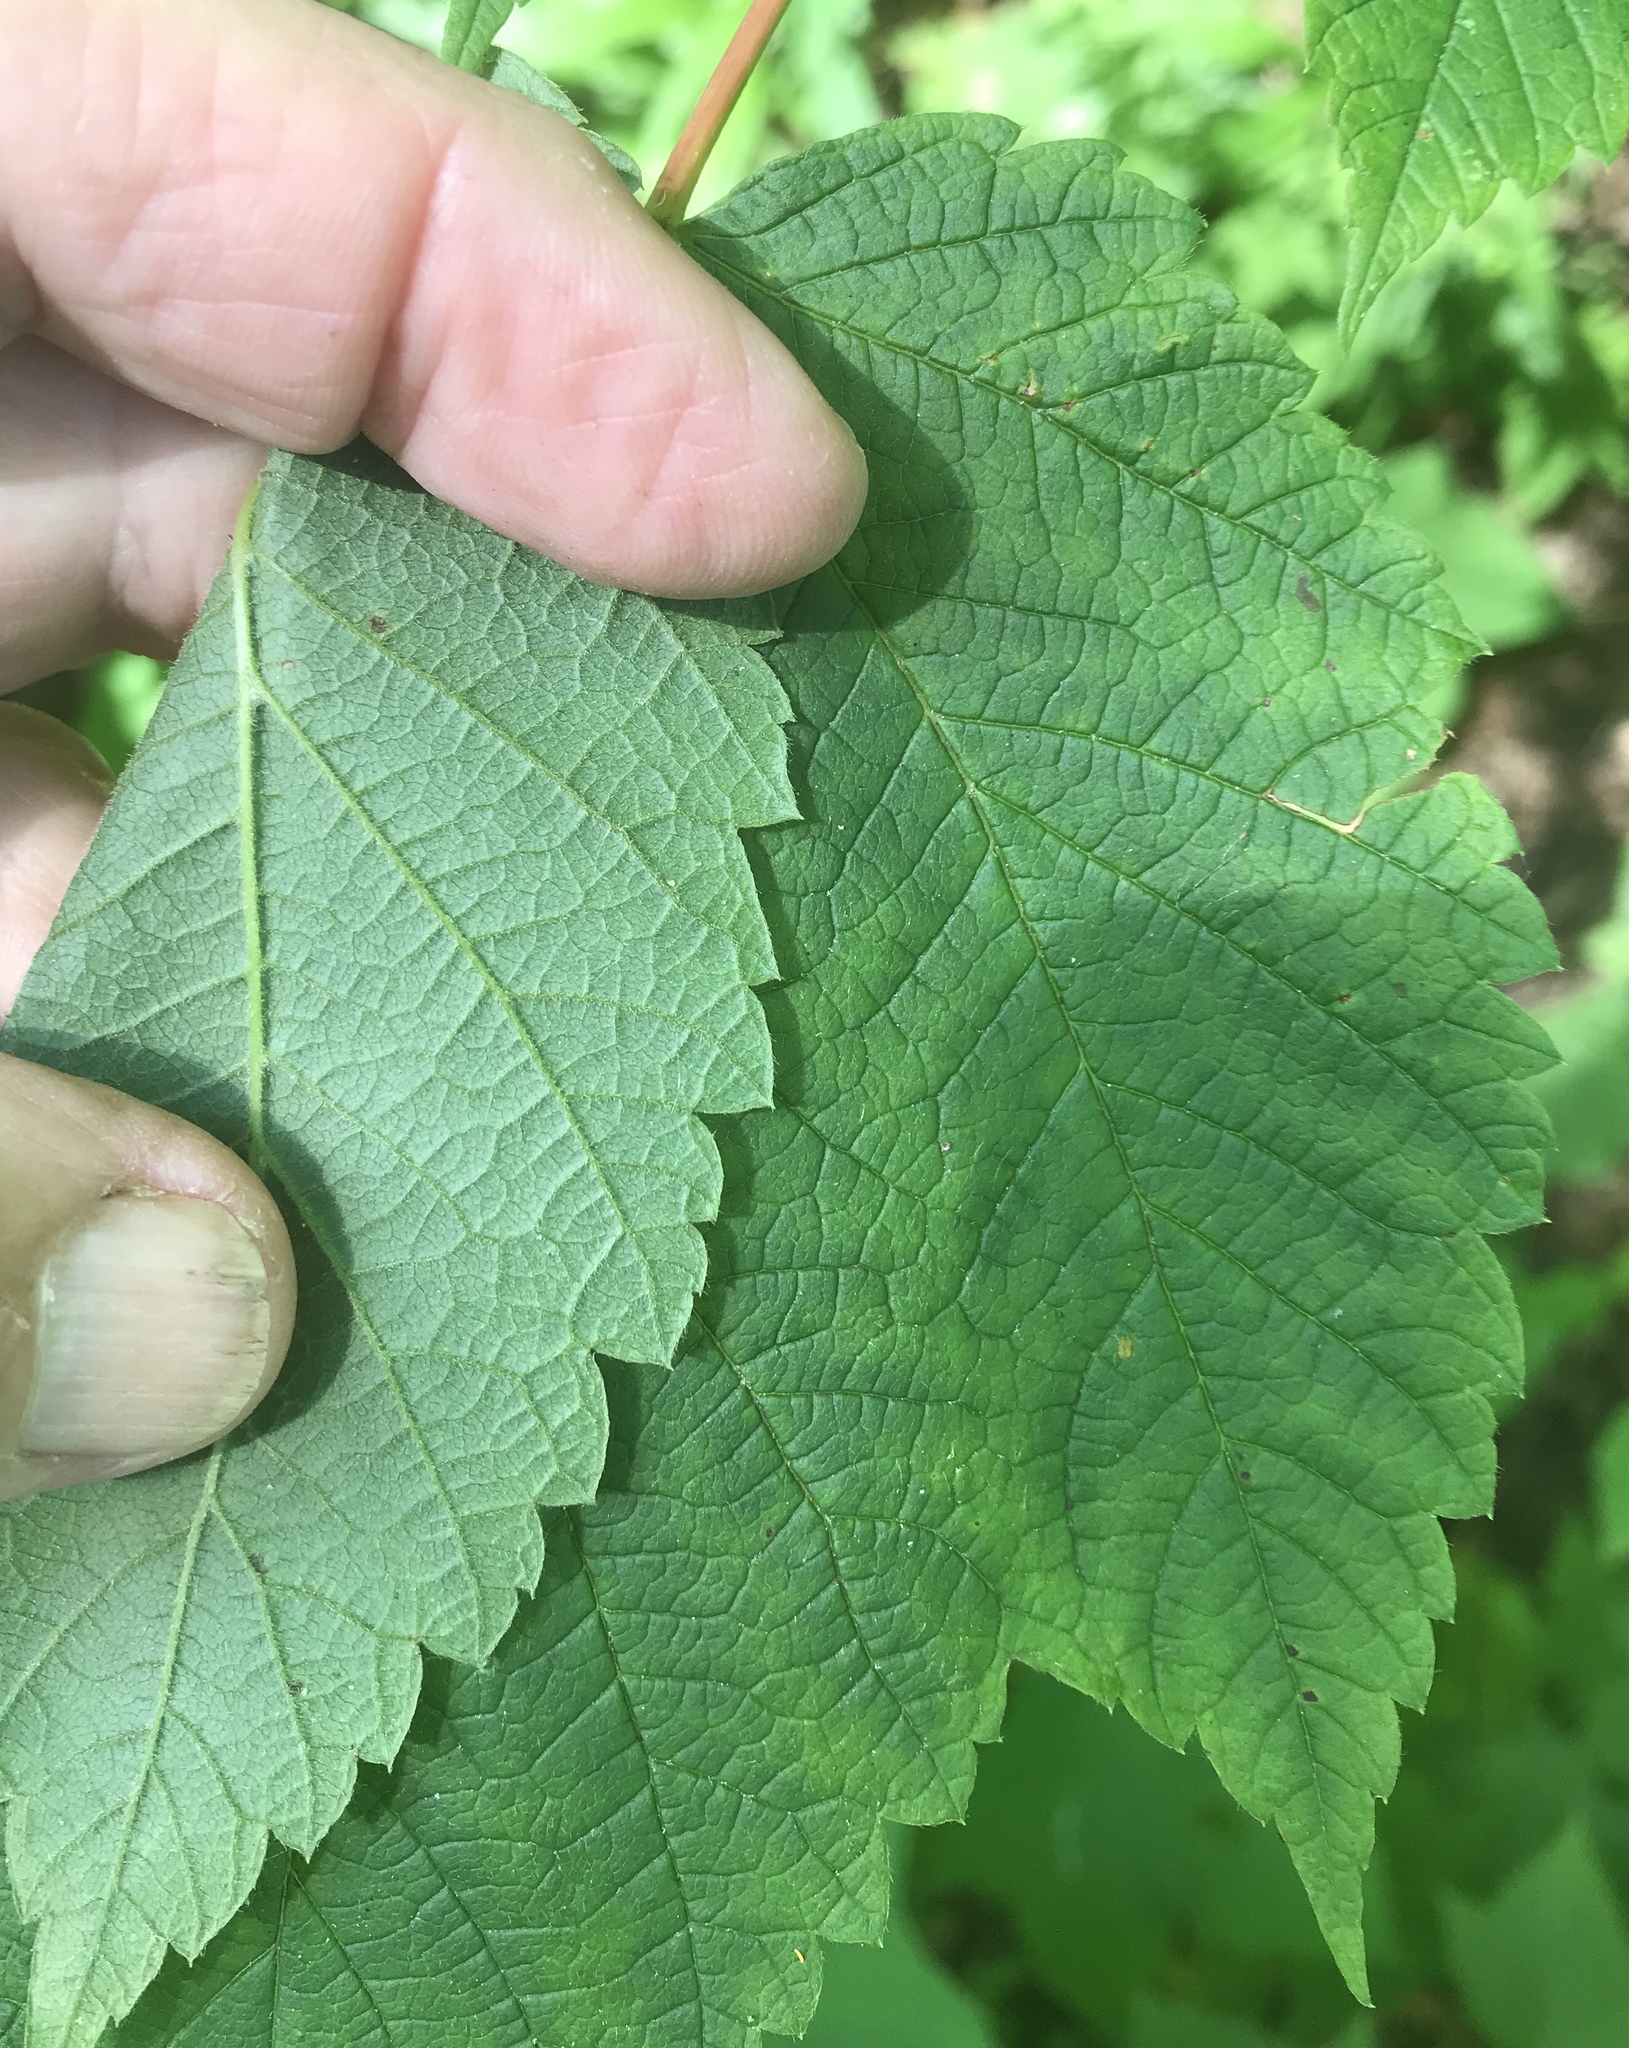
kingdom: Plantae
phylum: Tracheophyta
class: Magnoliopsida
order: Sapindales
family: Sapindaceae
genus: Acer
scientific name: Acer spicatum
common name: Mountain maple
